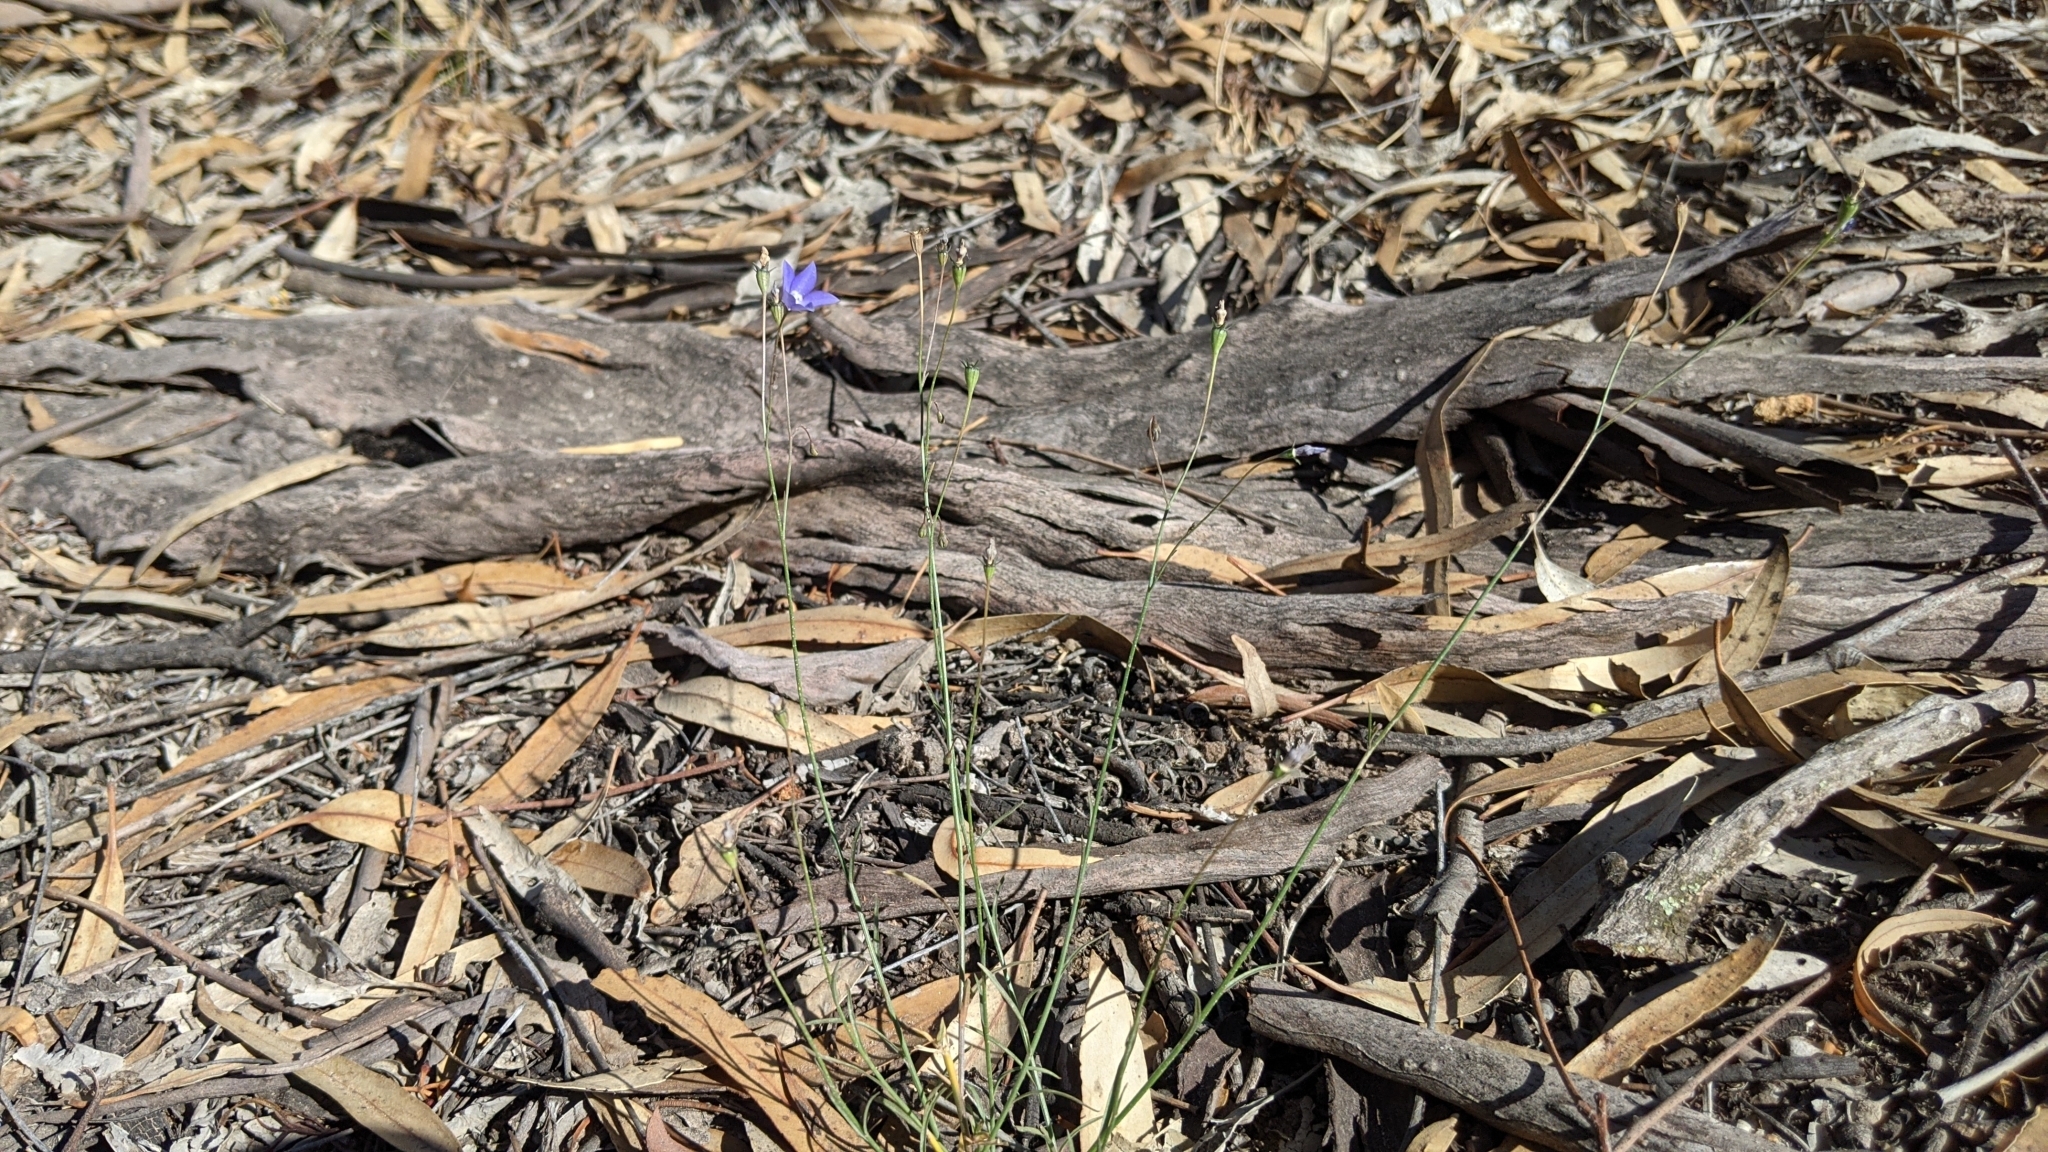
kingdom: Plantae
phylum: Tracheophyta
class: Magnoliopsida
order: Asterales
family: Campanulaceae
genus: Wahlenbergia
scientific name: Wahlenbergia fluminalis
